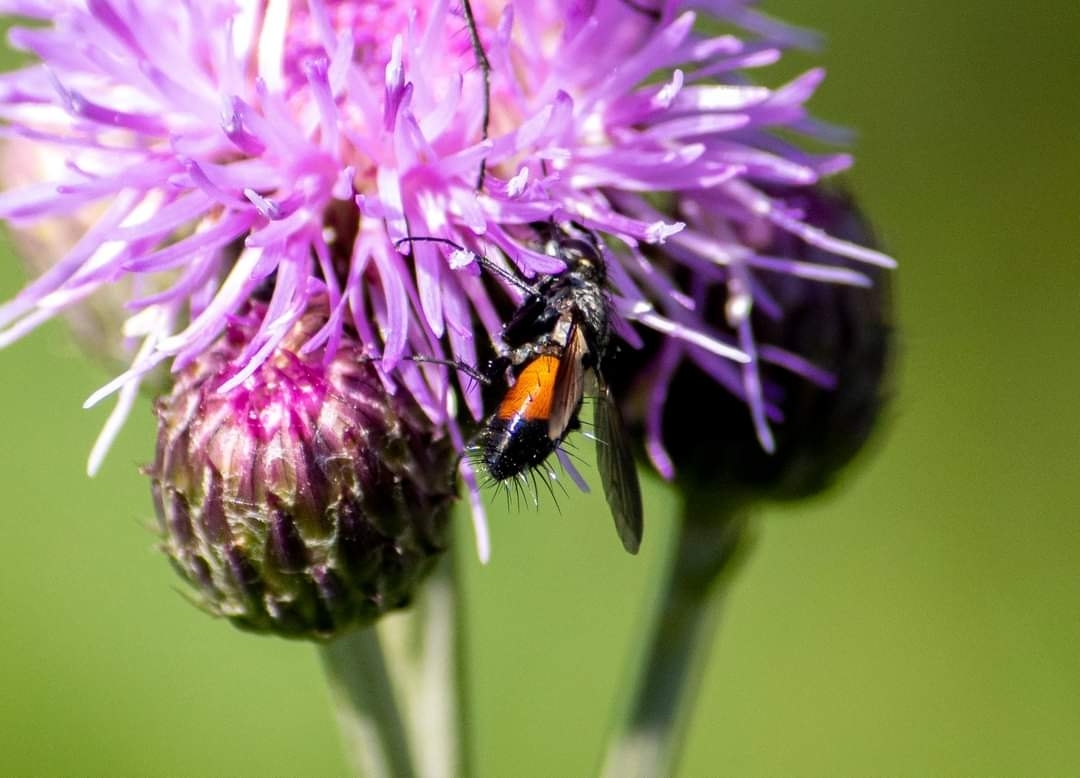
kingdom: Animalia
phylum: Arthropoda
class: Insecta
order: Diptera
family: Tachinidae
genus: Eriothrix
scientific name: Eriothrix rufomaculatus
